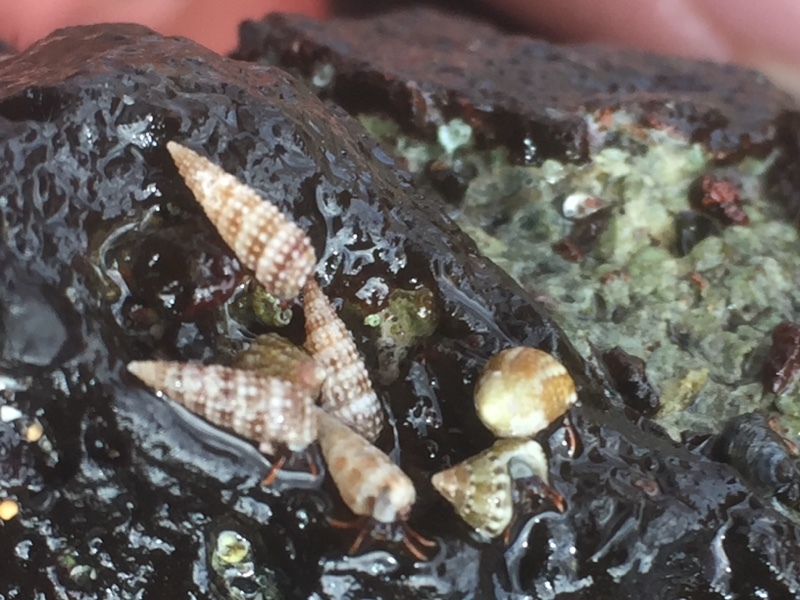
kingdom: Animalia
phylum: Arthropoda
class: Malacostraca
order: Decapoda
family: Diogenidae
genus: Clibanarius
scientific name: Clibanarius aequabilis
